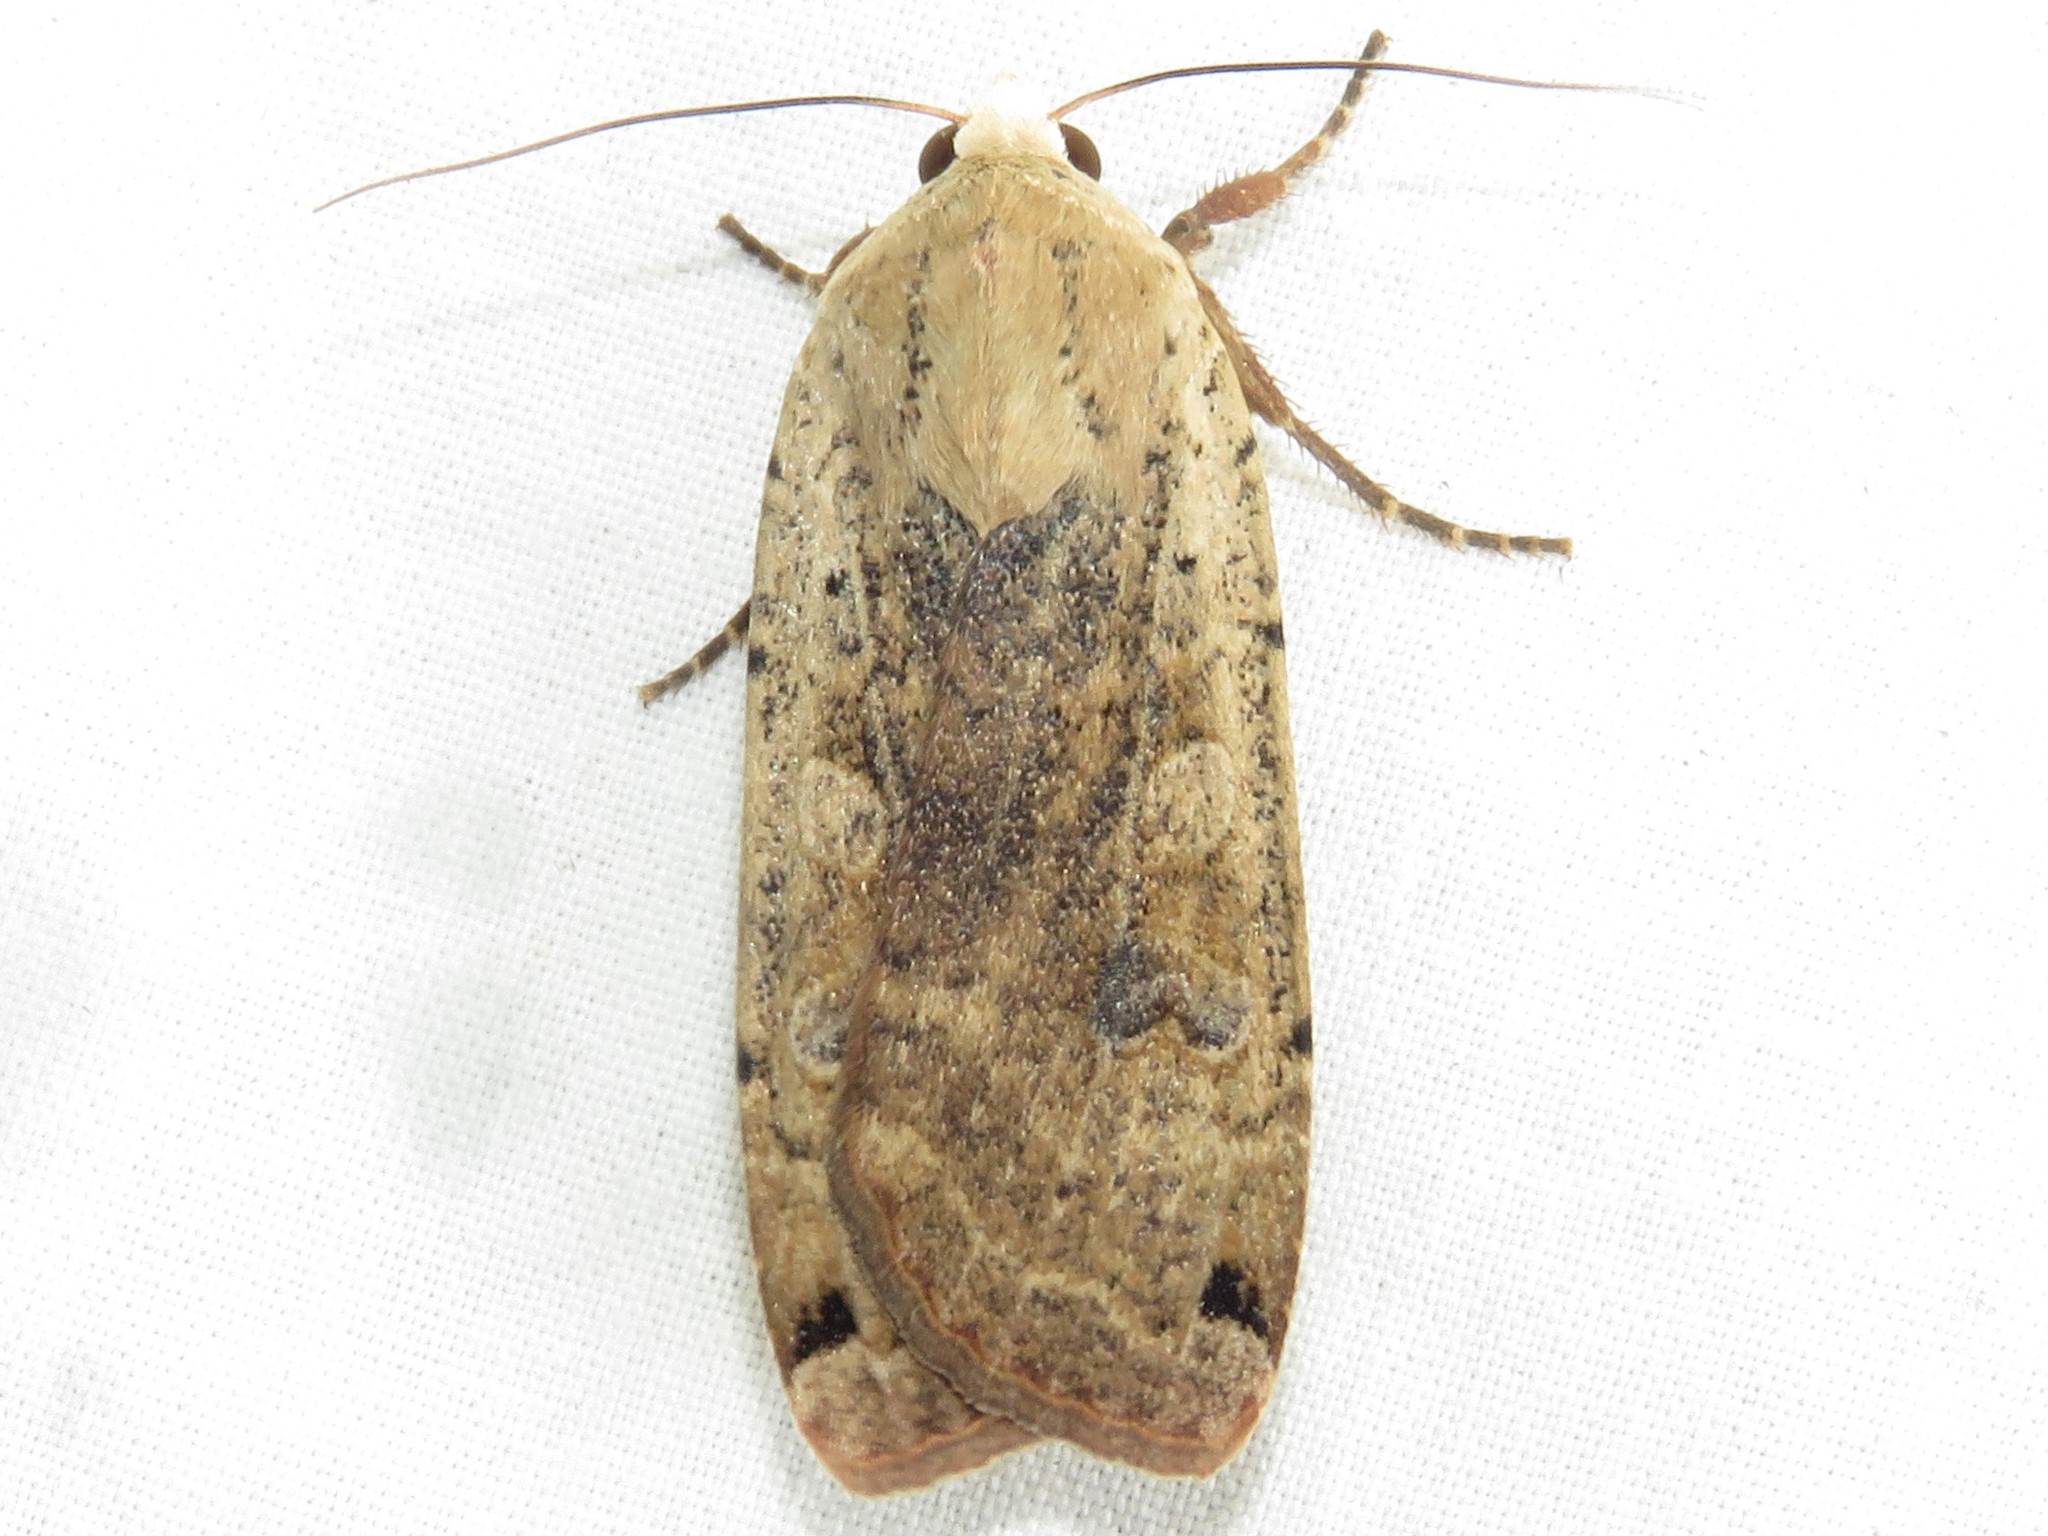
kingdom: Animalia
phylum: Arthropoda
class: Insecta
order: Lepidoptera
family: Noctuidae
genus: Noctua
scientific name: Noctua pronuba
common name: Large yellow underwing
